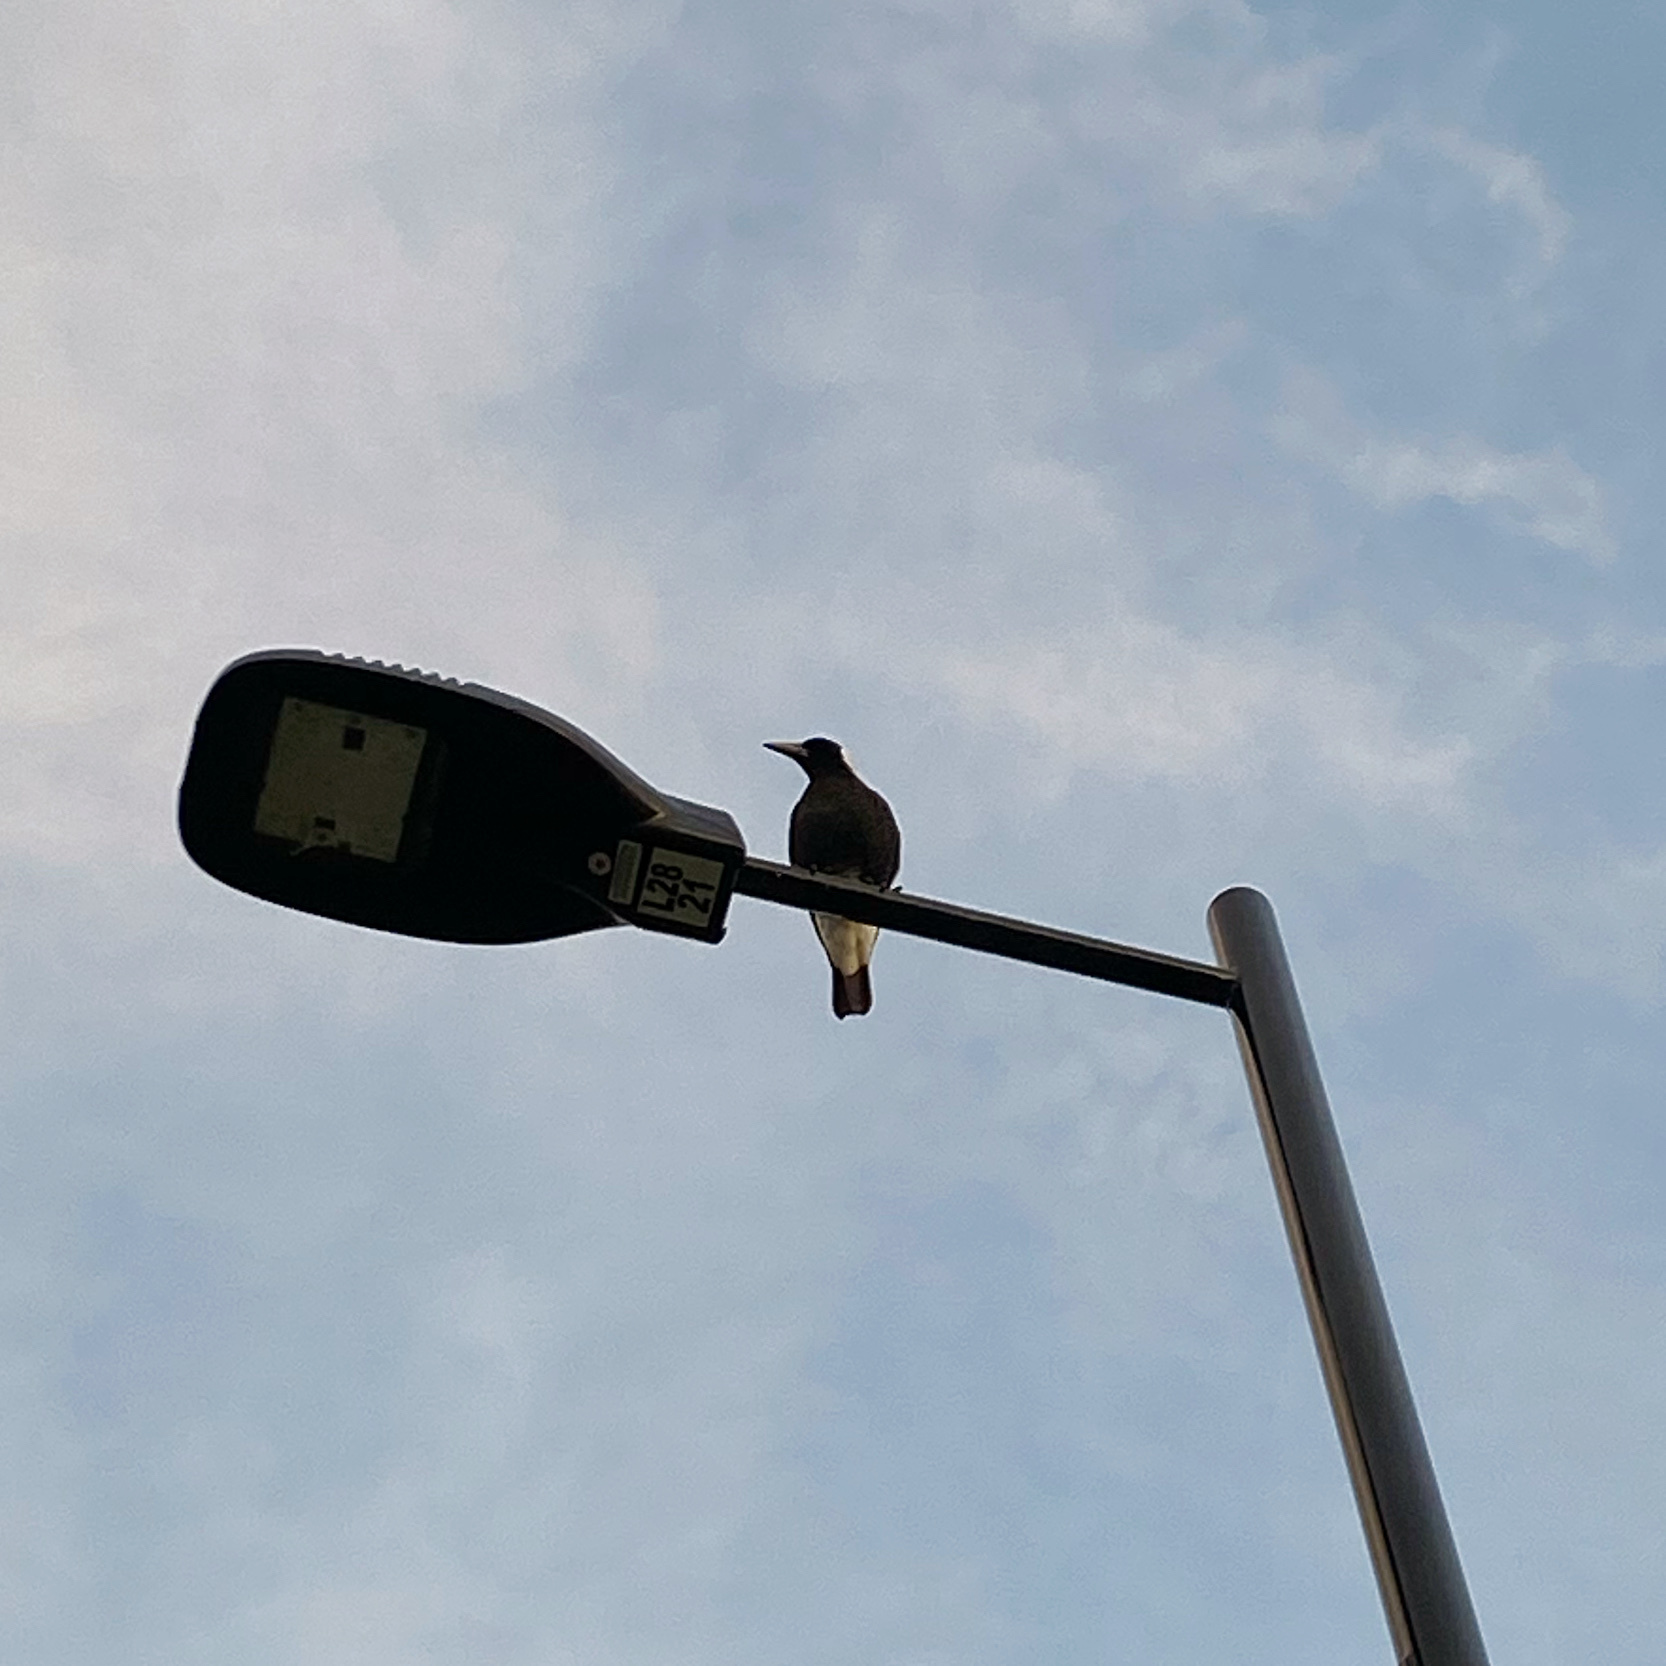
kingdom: Animalia
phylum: Chordata
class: Aves
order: Passeriformes
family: Cracticidae
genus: Gymnorhina
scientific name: Gymnorhina tibicen
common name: Australian magpie
